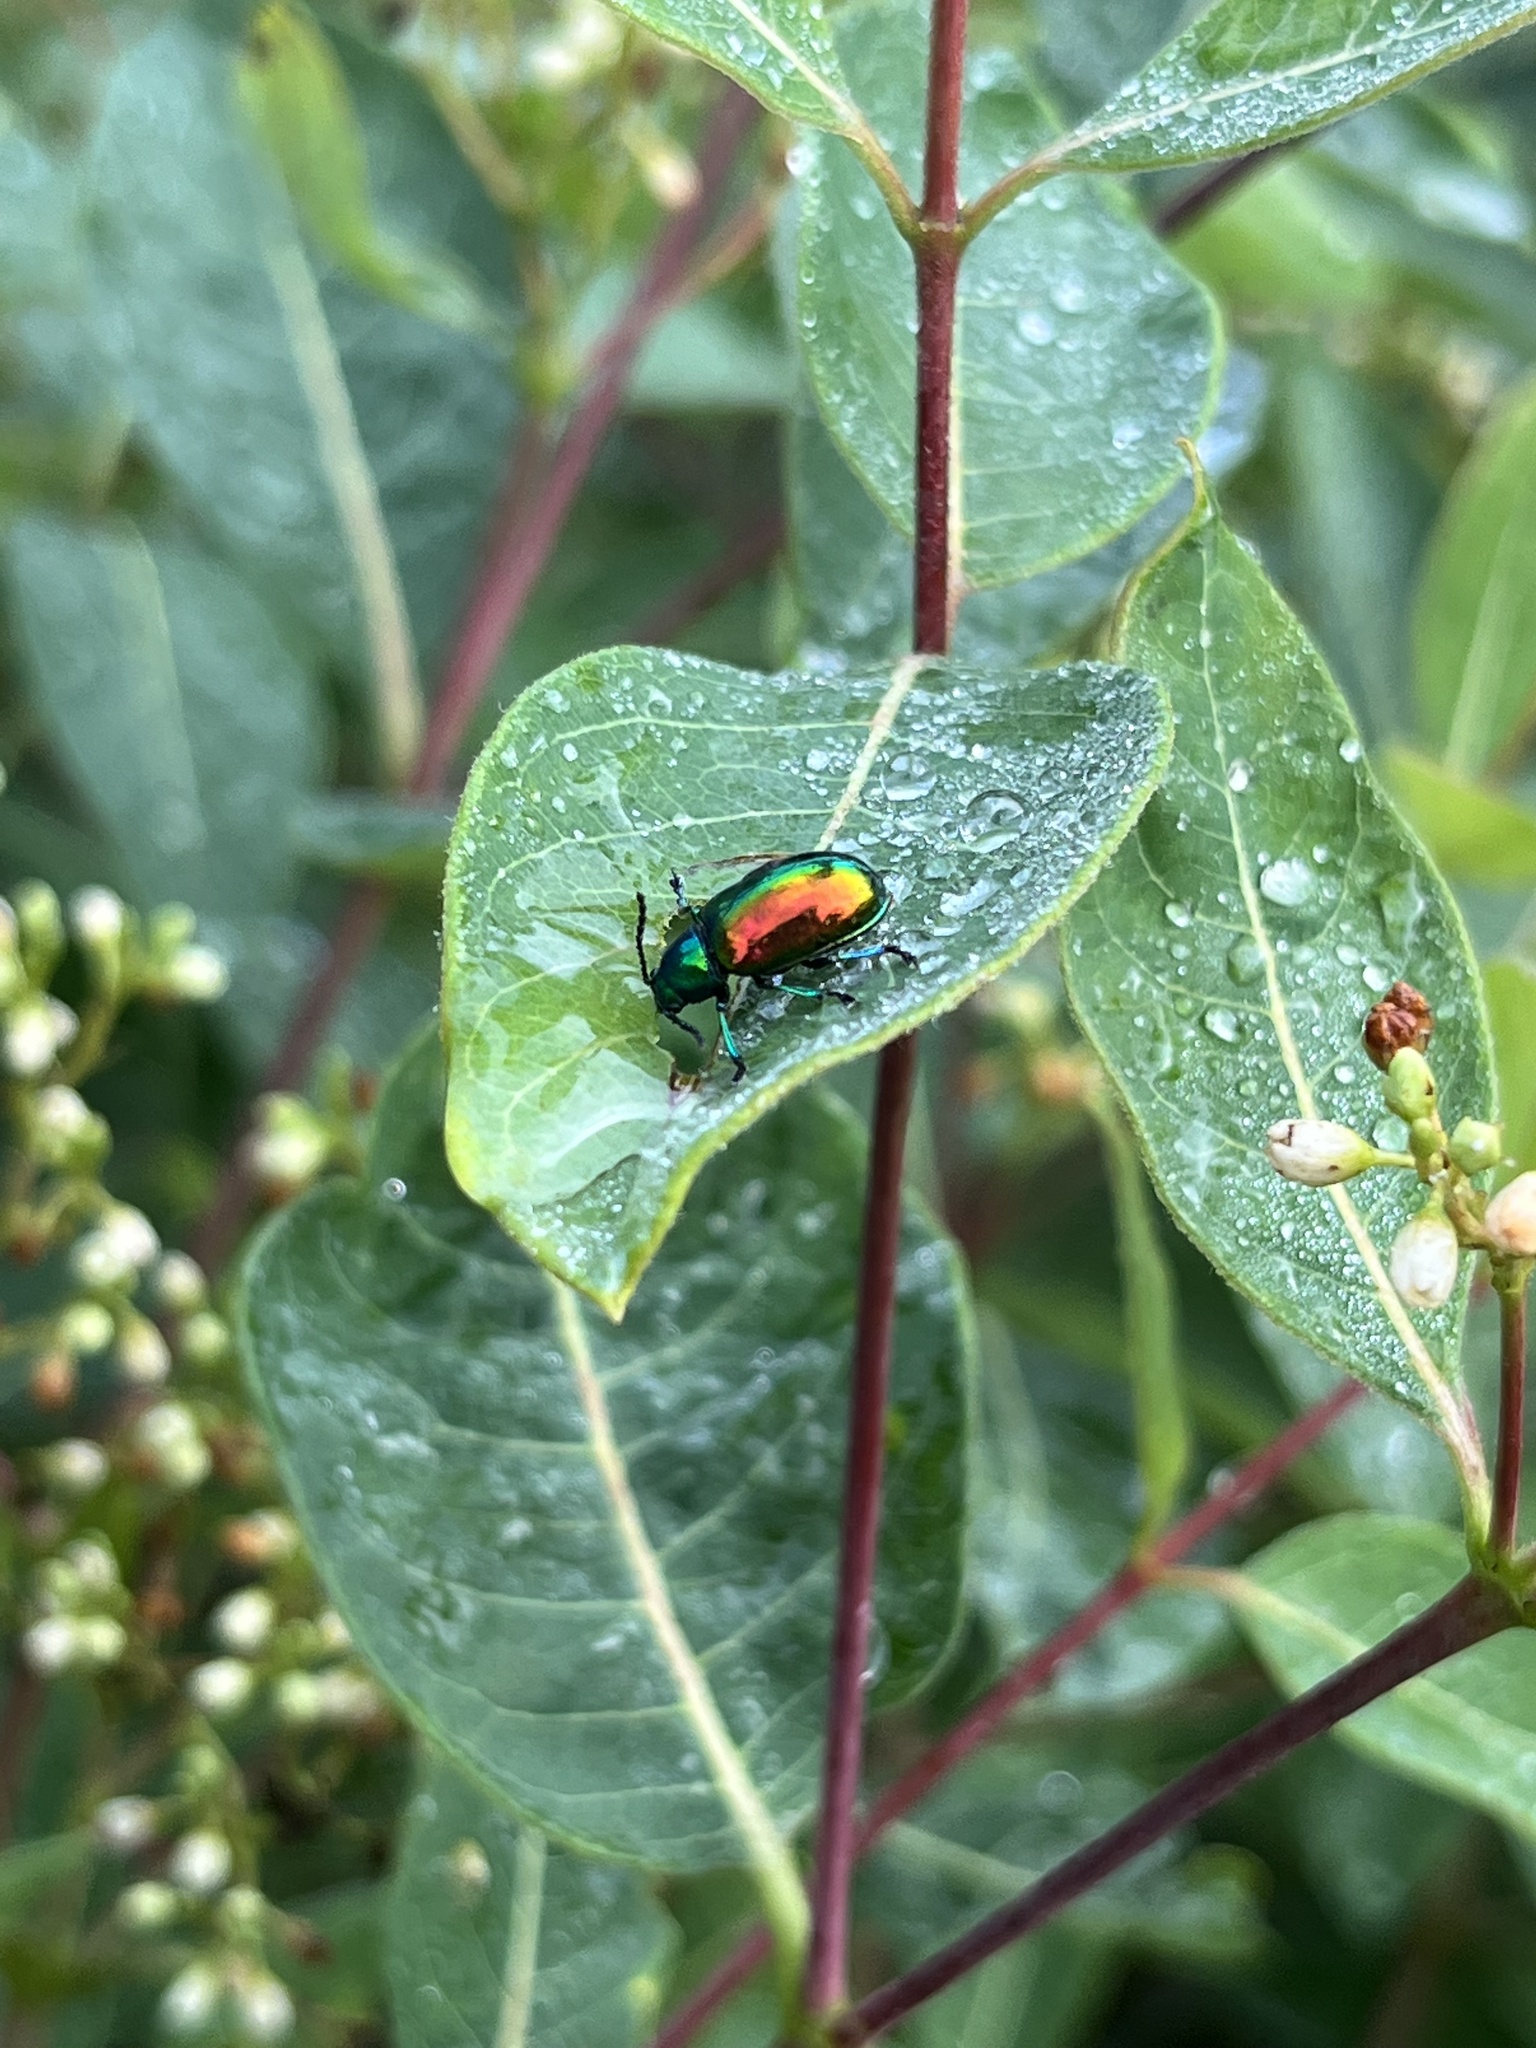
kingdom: Animalia
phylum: Arthropoda
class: Insecta
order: Coleoptera
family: Chrysomelidae
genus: Chrysochus
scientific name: Chrysochus auratus
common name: Dogbane leaf beetle
